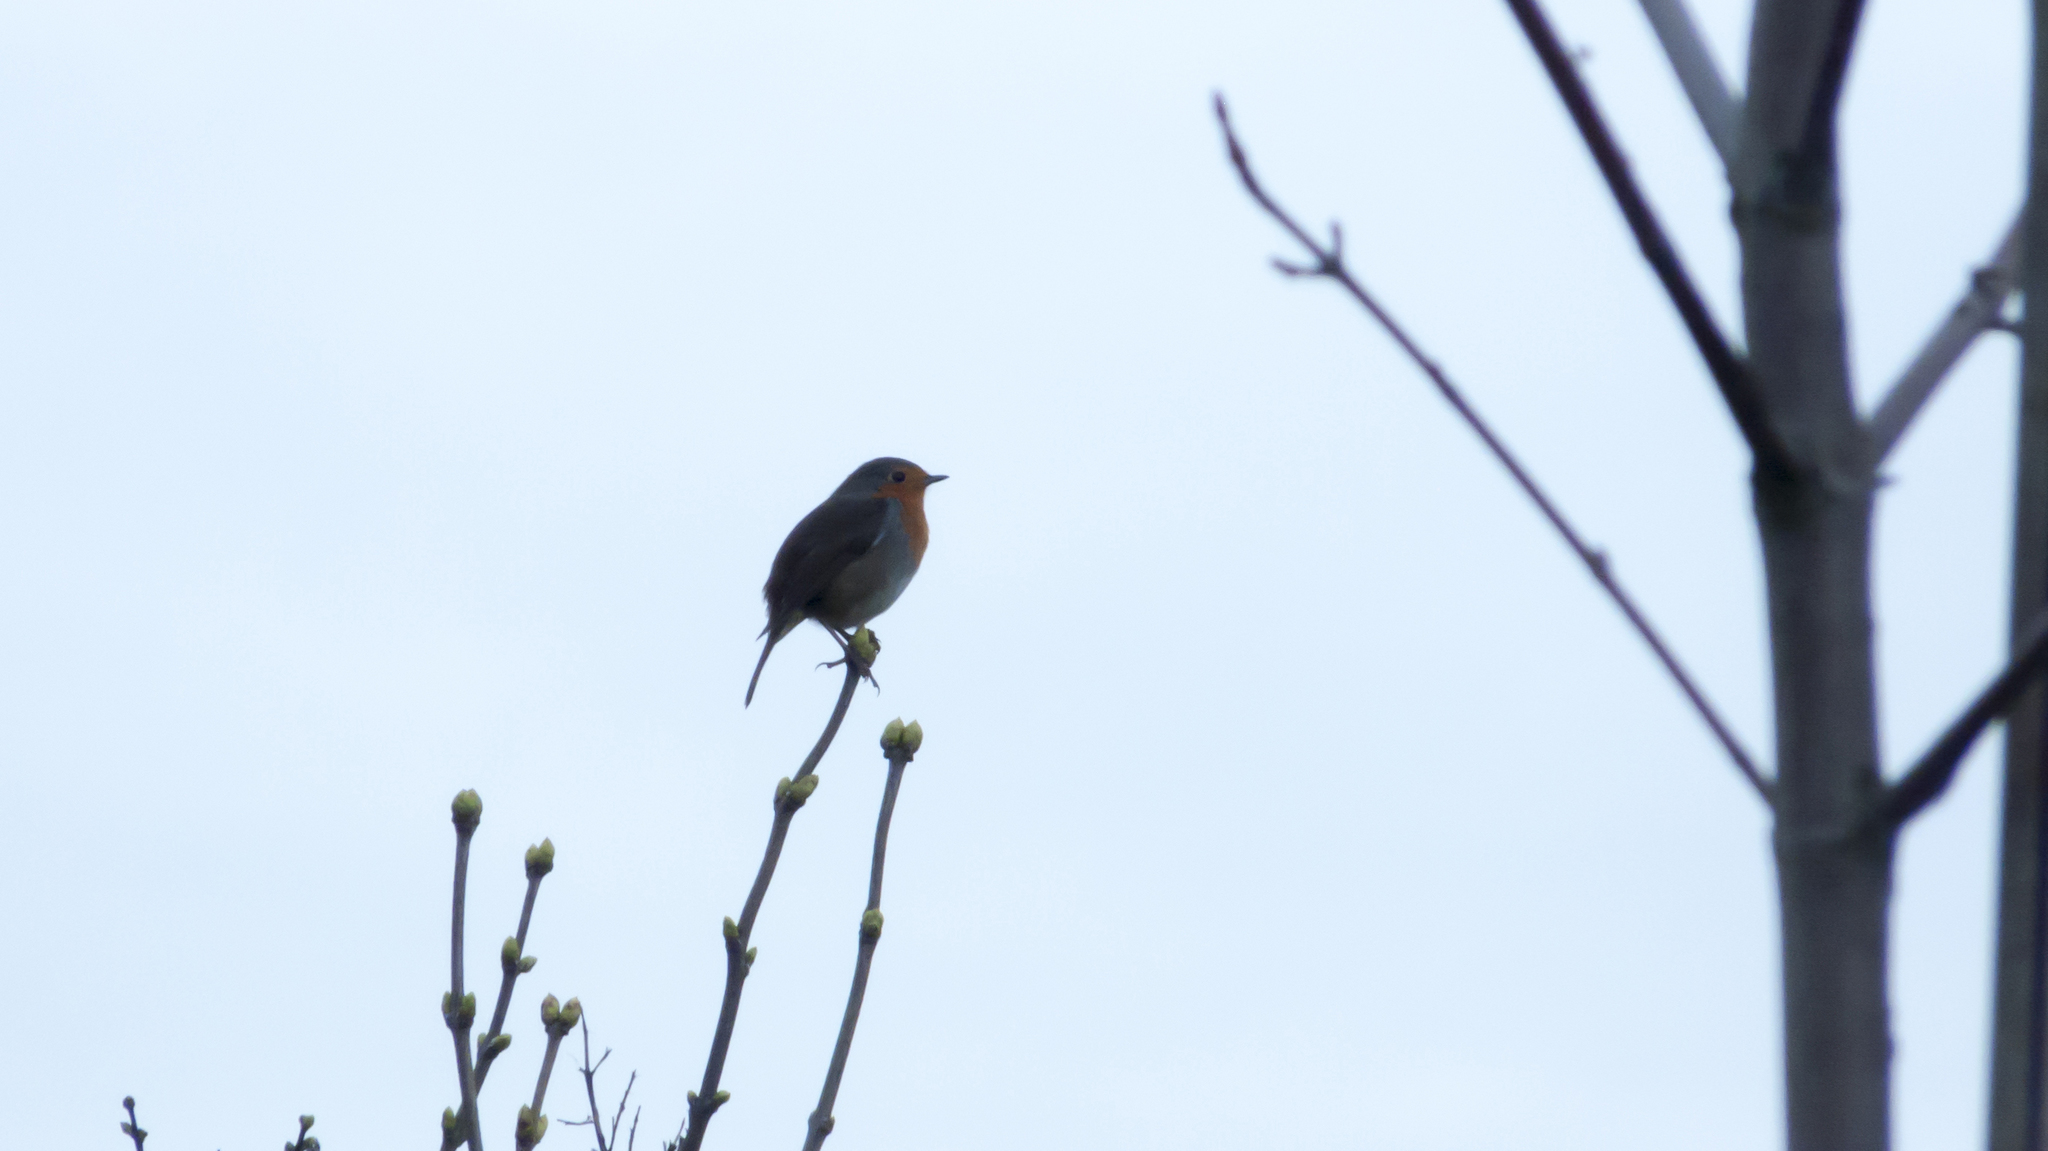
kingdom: Animalia
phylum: Chordata
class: Aves
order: Passeriformes
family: Muscicapidae
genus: Erithacus
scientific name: Erithacus rubecula
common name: European robin
